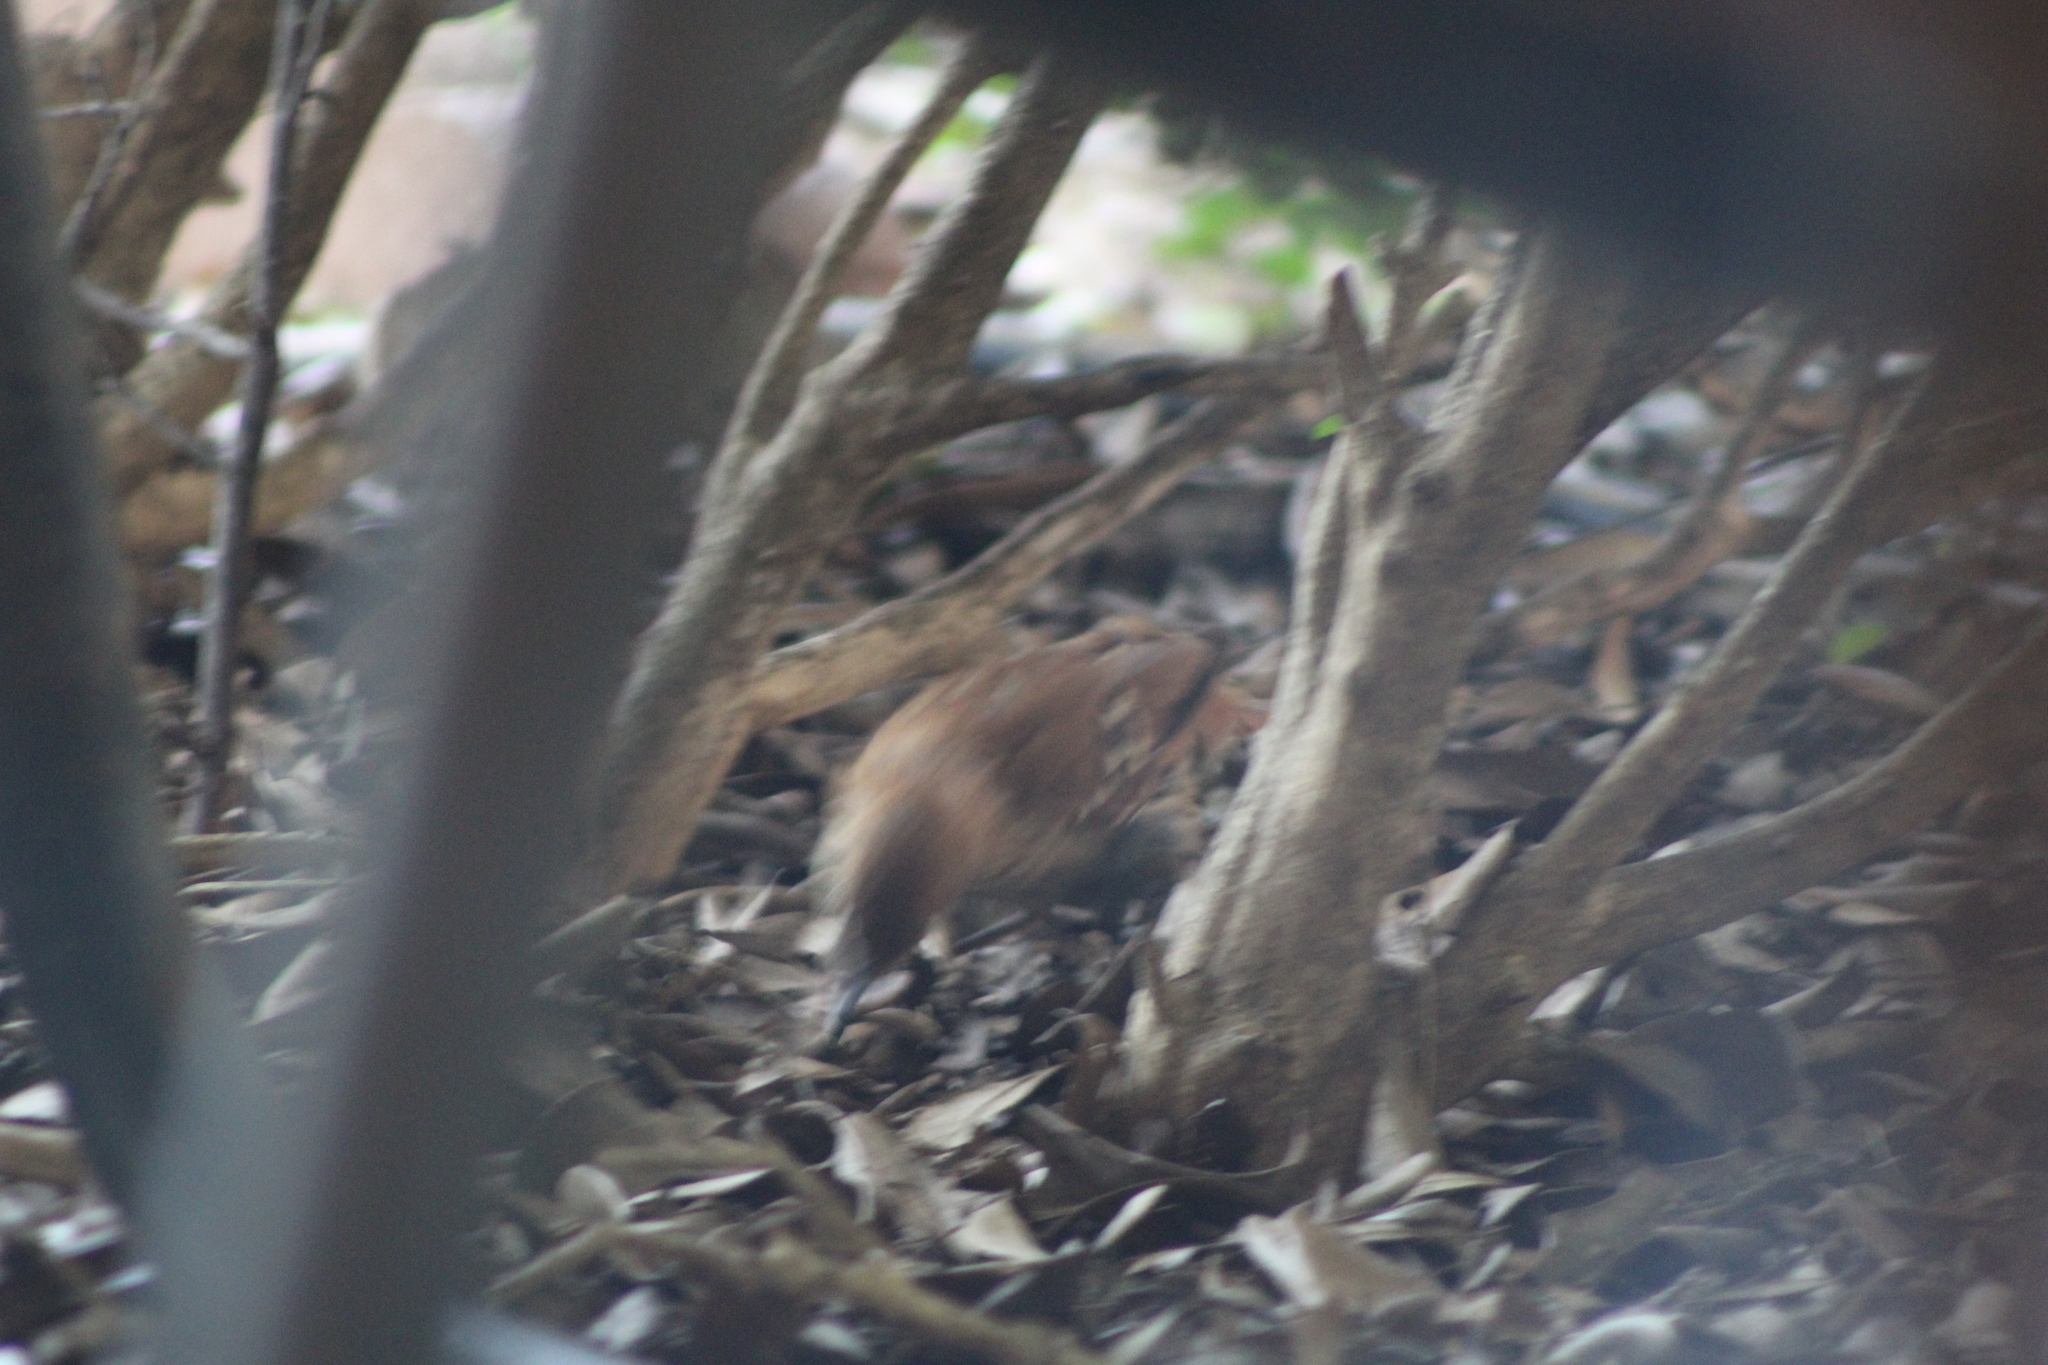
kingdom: Animalia
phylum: Chordata
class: Aves
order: Passeriformes
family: Mimidae
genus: Toxostoma
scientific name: Toxostoma rufum
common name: Brown thrasher
